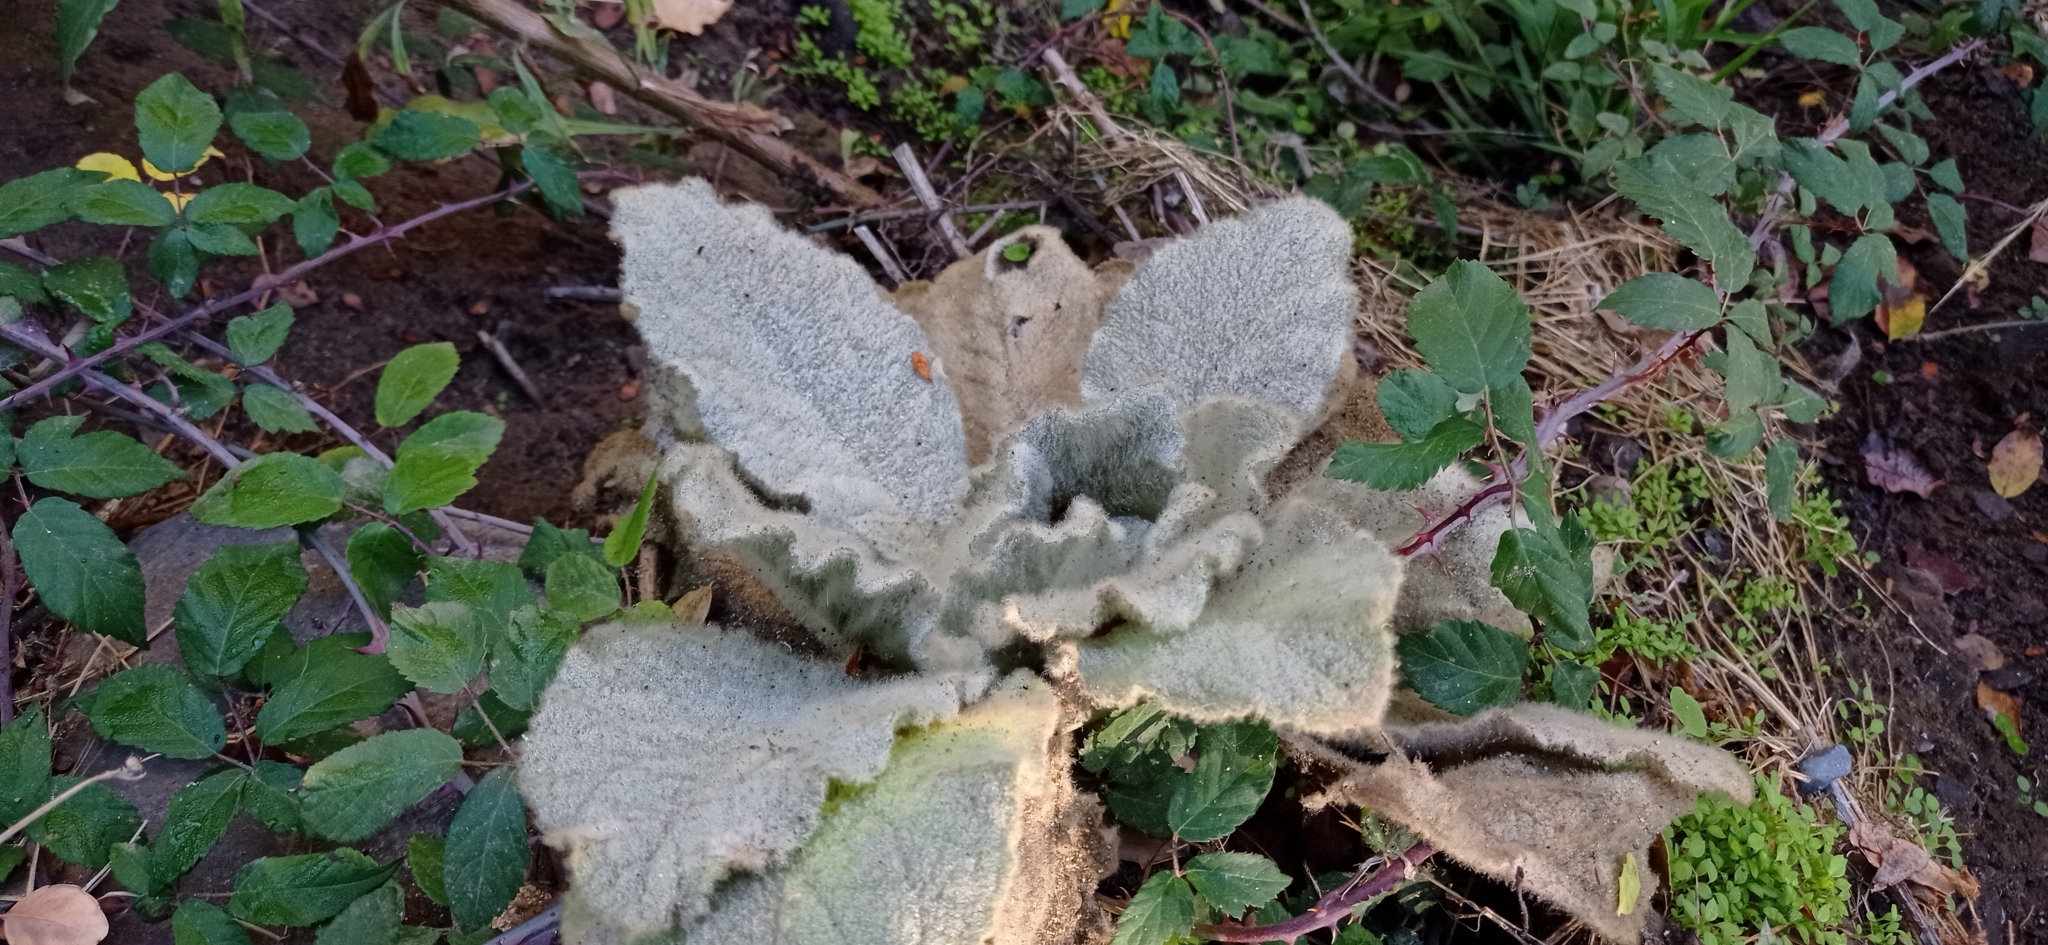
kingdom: Plantae
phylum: Tracheophyta
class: Magnoliopsida
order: Lamiales
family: Scrophulariaceae
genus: Verbascum
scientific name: Verbascum thapsus
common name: Common mullein
